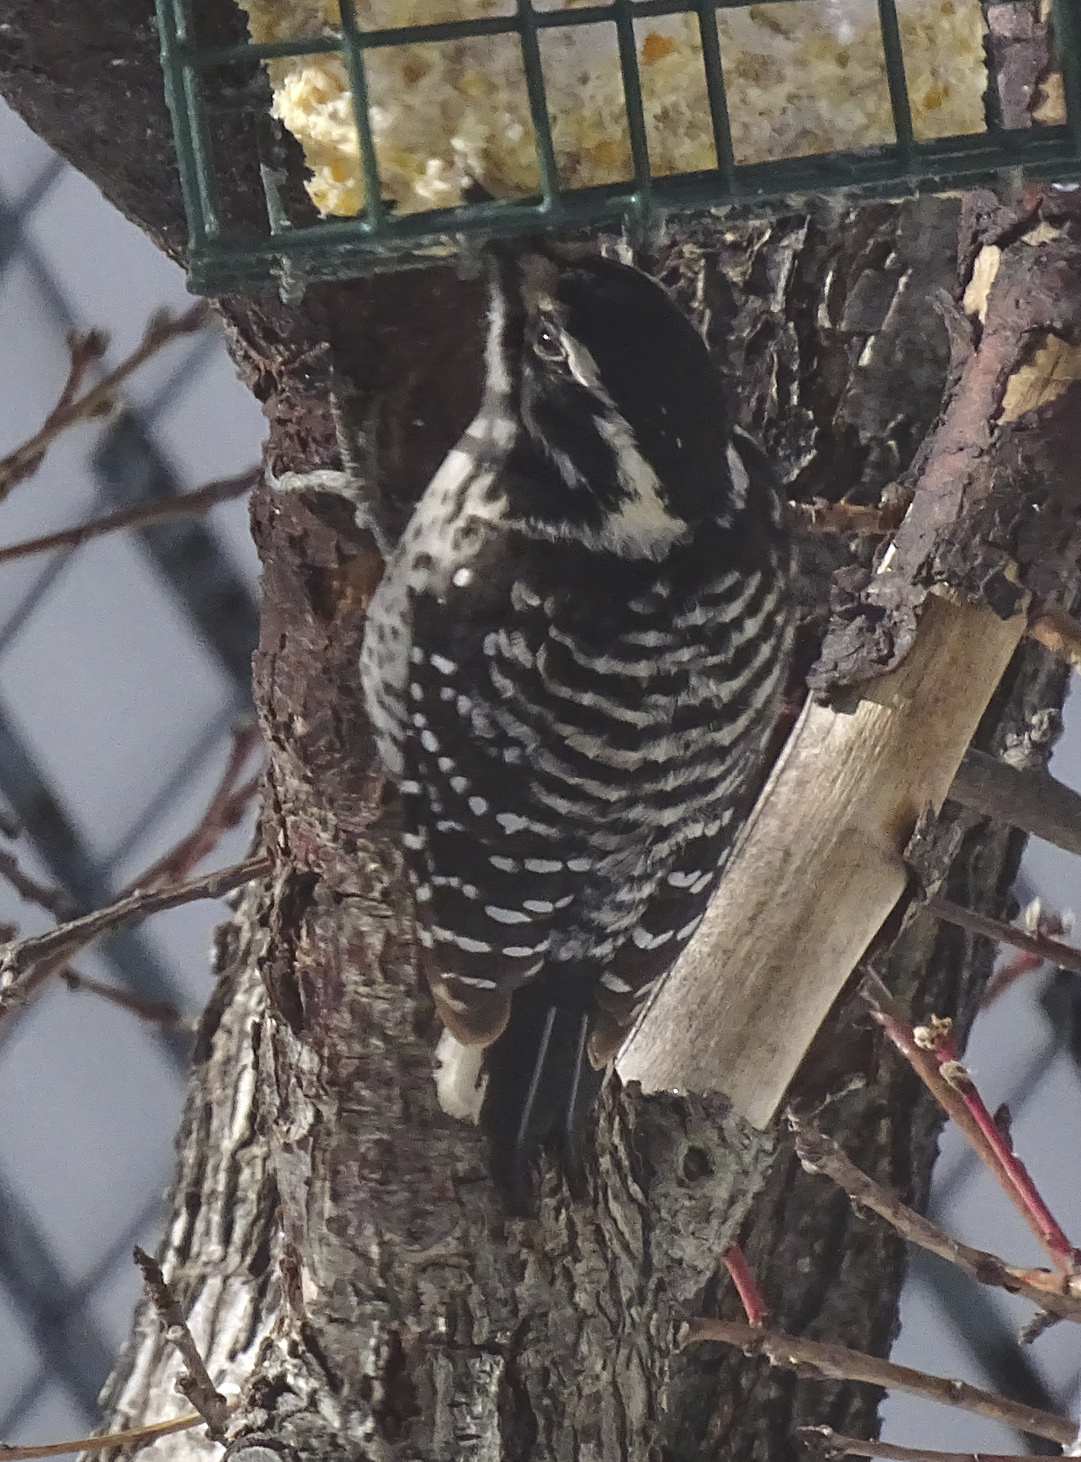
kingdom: Animalia
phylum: Chordata
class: Aves
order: Piciformes
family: Picidae
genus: Dryobates
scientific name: Dryobates nuttallii
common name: Nuttall's woodpecker
